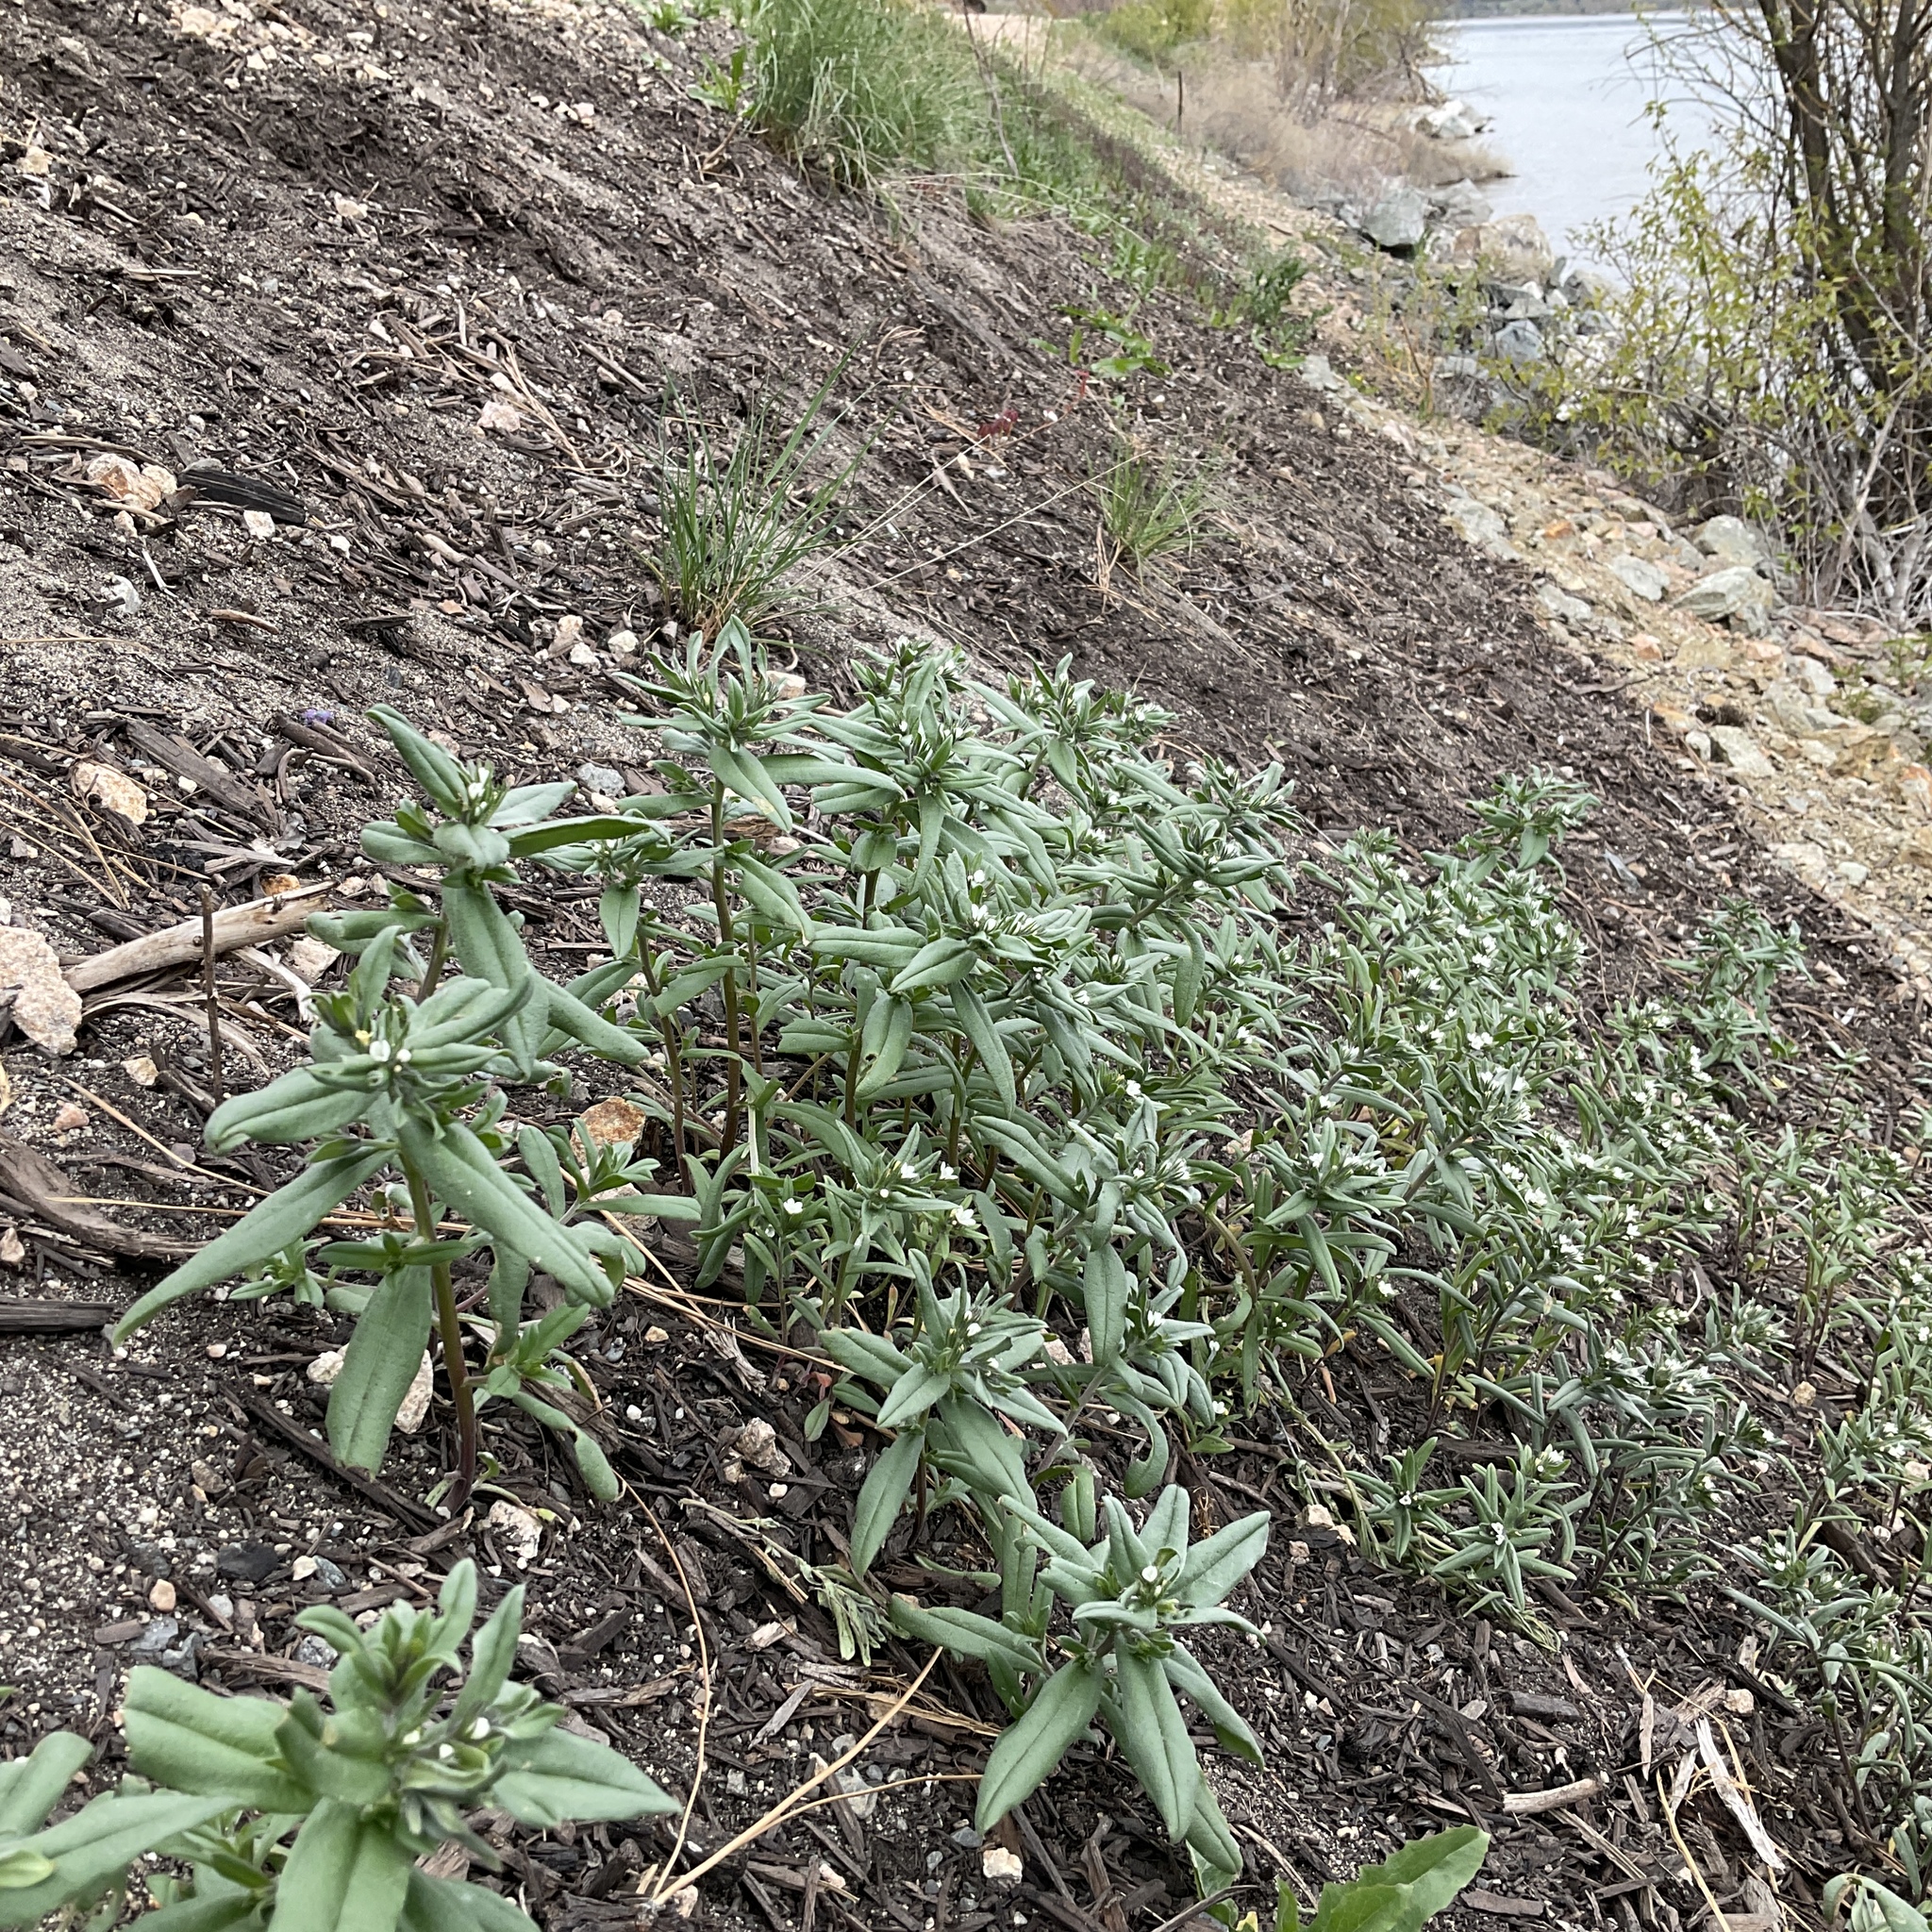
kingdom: Plantae
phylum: Tracheophyta
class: Magnoliopsida
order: Boraginales
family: Boraginaceae
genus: Buglossoides
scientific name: Buglossoides arvensis
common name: Corn gromwell
